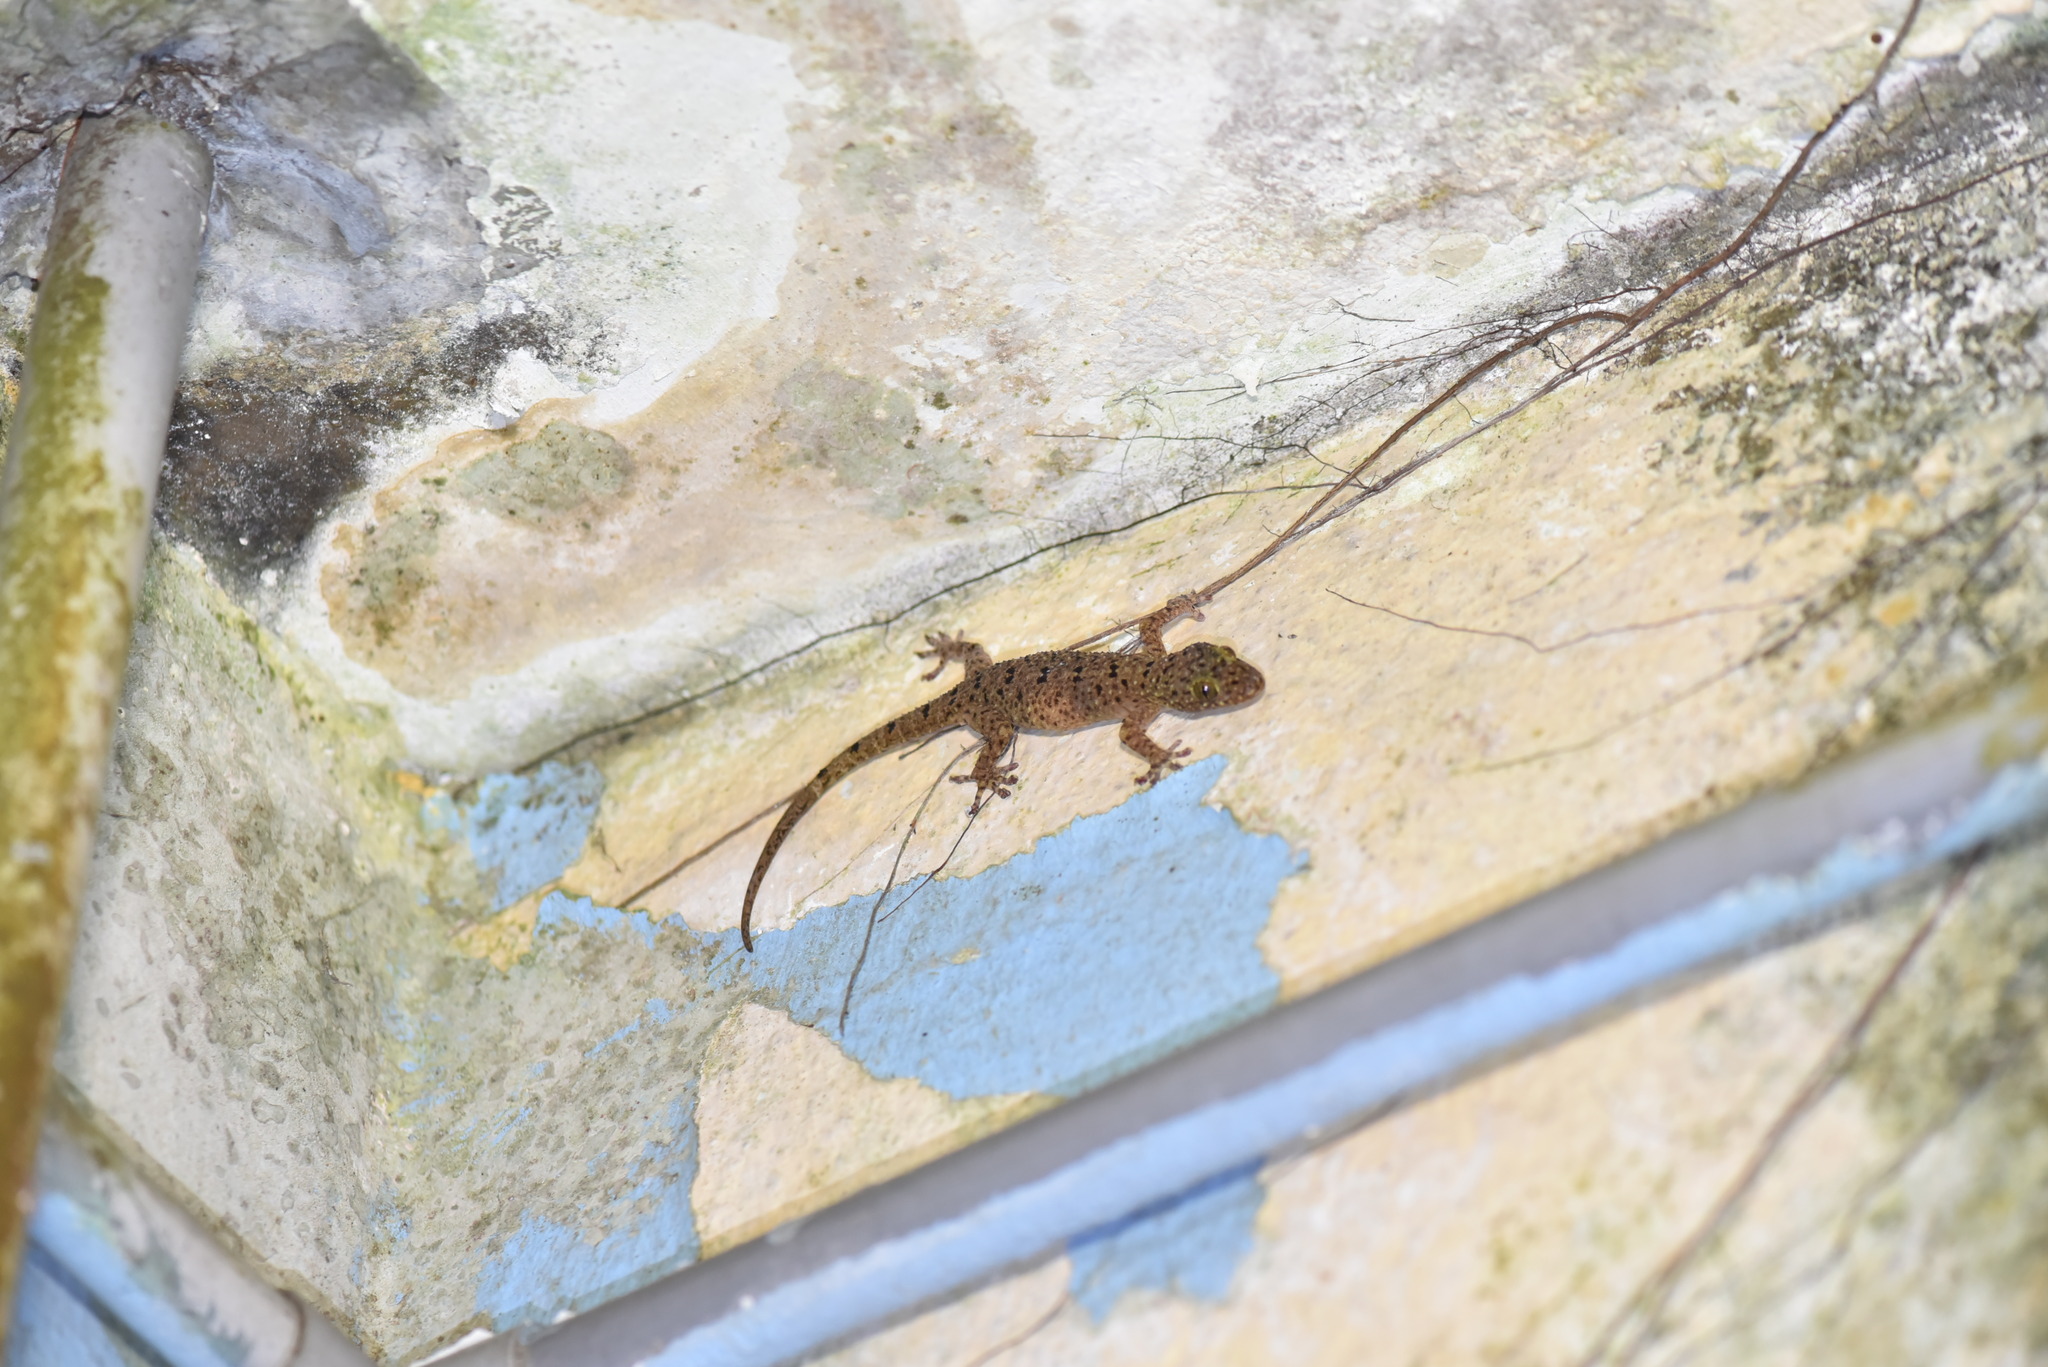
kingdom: Animalia
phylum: Chordata
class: Squamata
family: Gekkonidae
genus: Gekko
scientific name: Gekko monarchus
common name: Spotted house gecko
